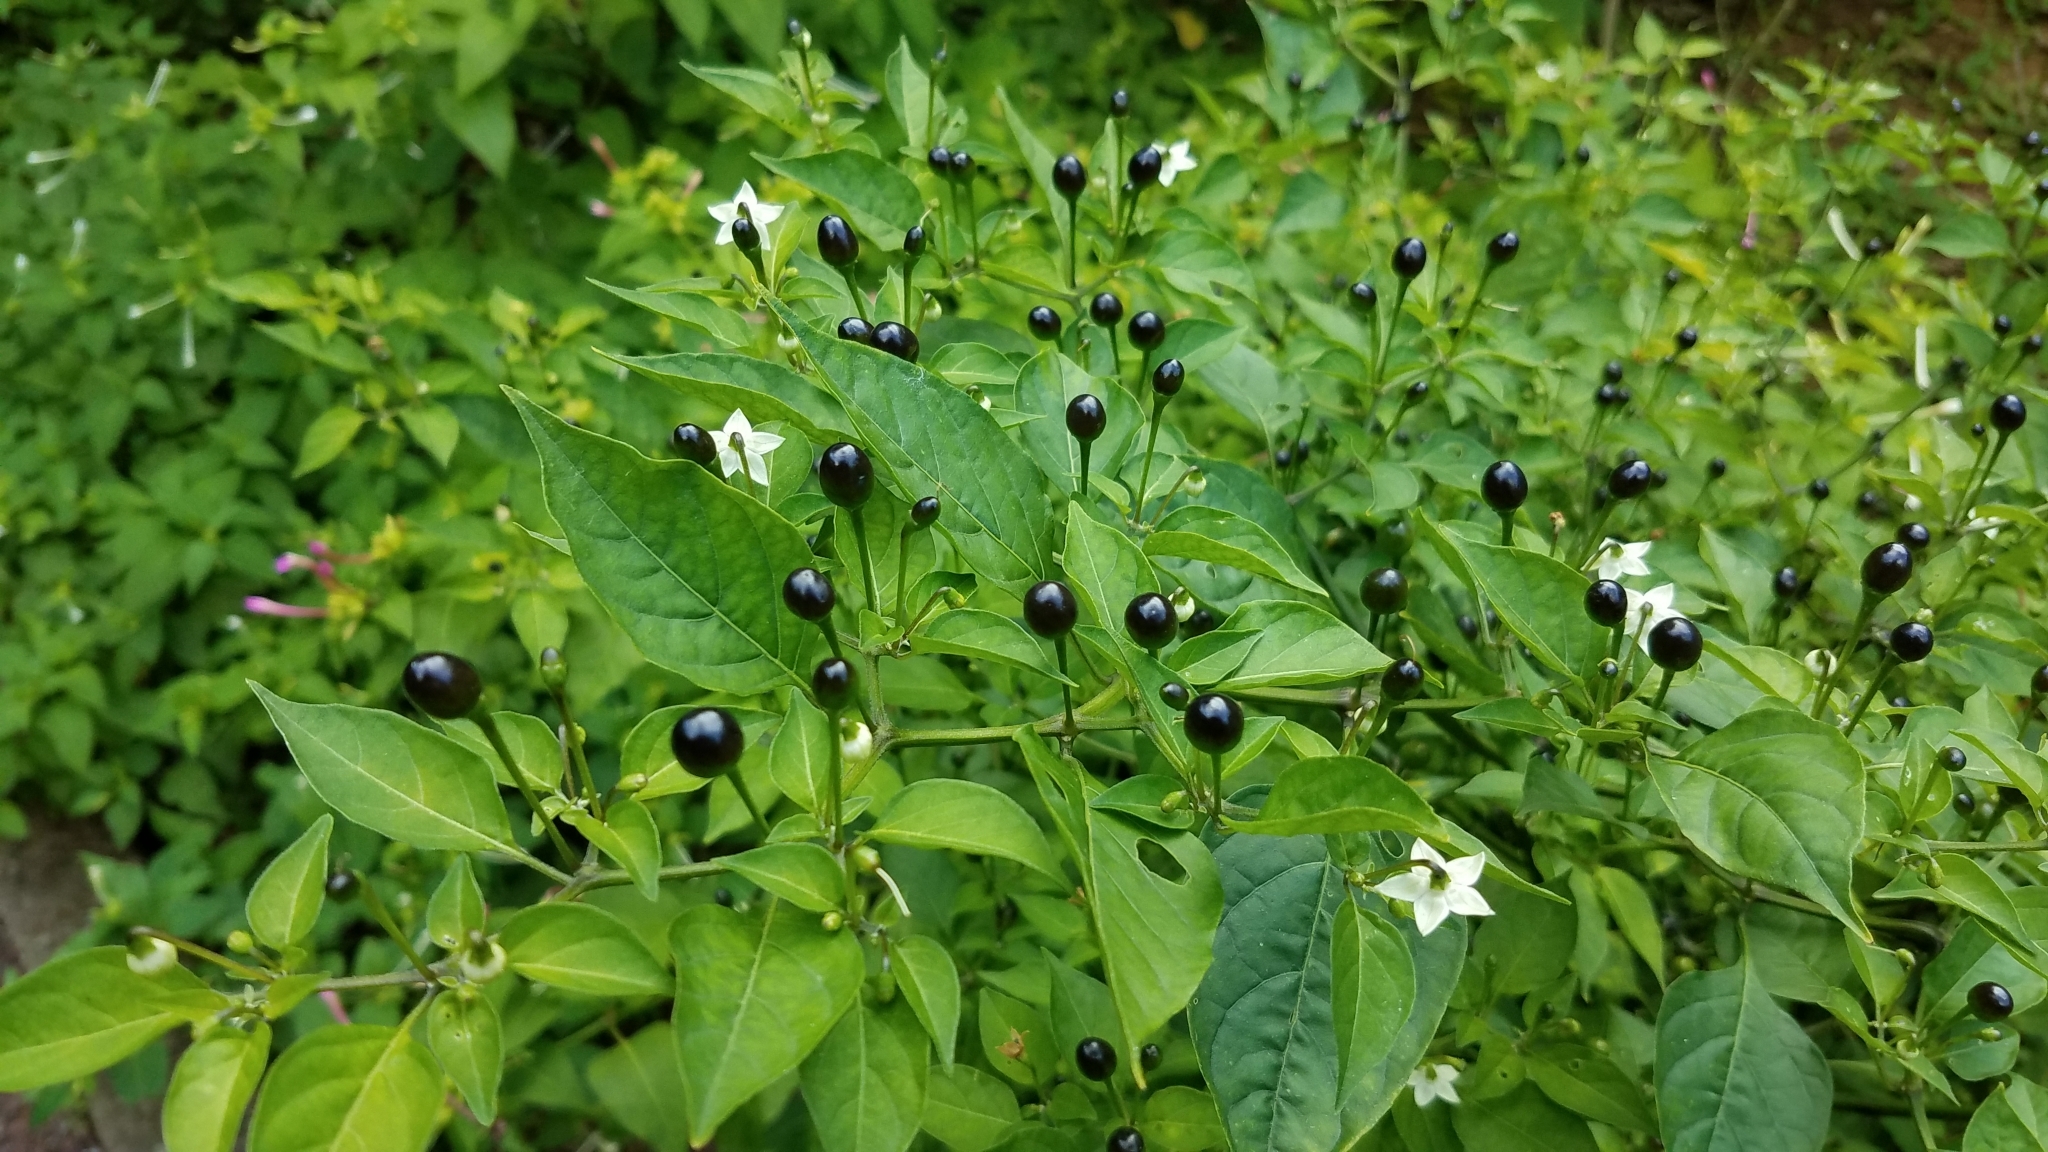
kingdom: Plantae
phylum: Tracheophyta
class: Magnoliopsida
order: Solanales
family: Solanaceae
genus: Capsicum
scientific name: Capsicum annuum
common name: Sweet pepper
